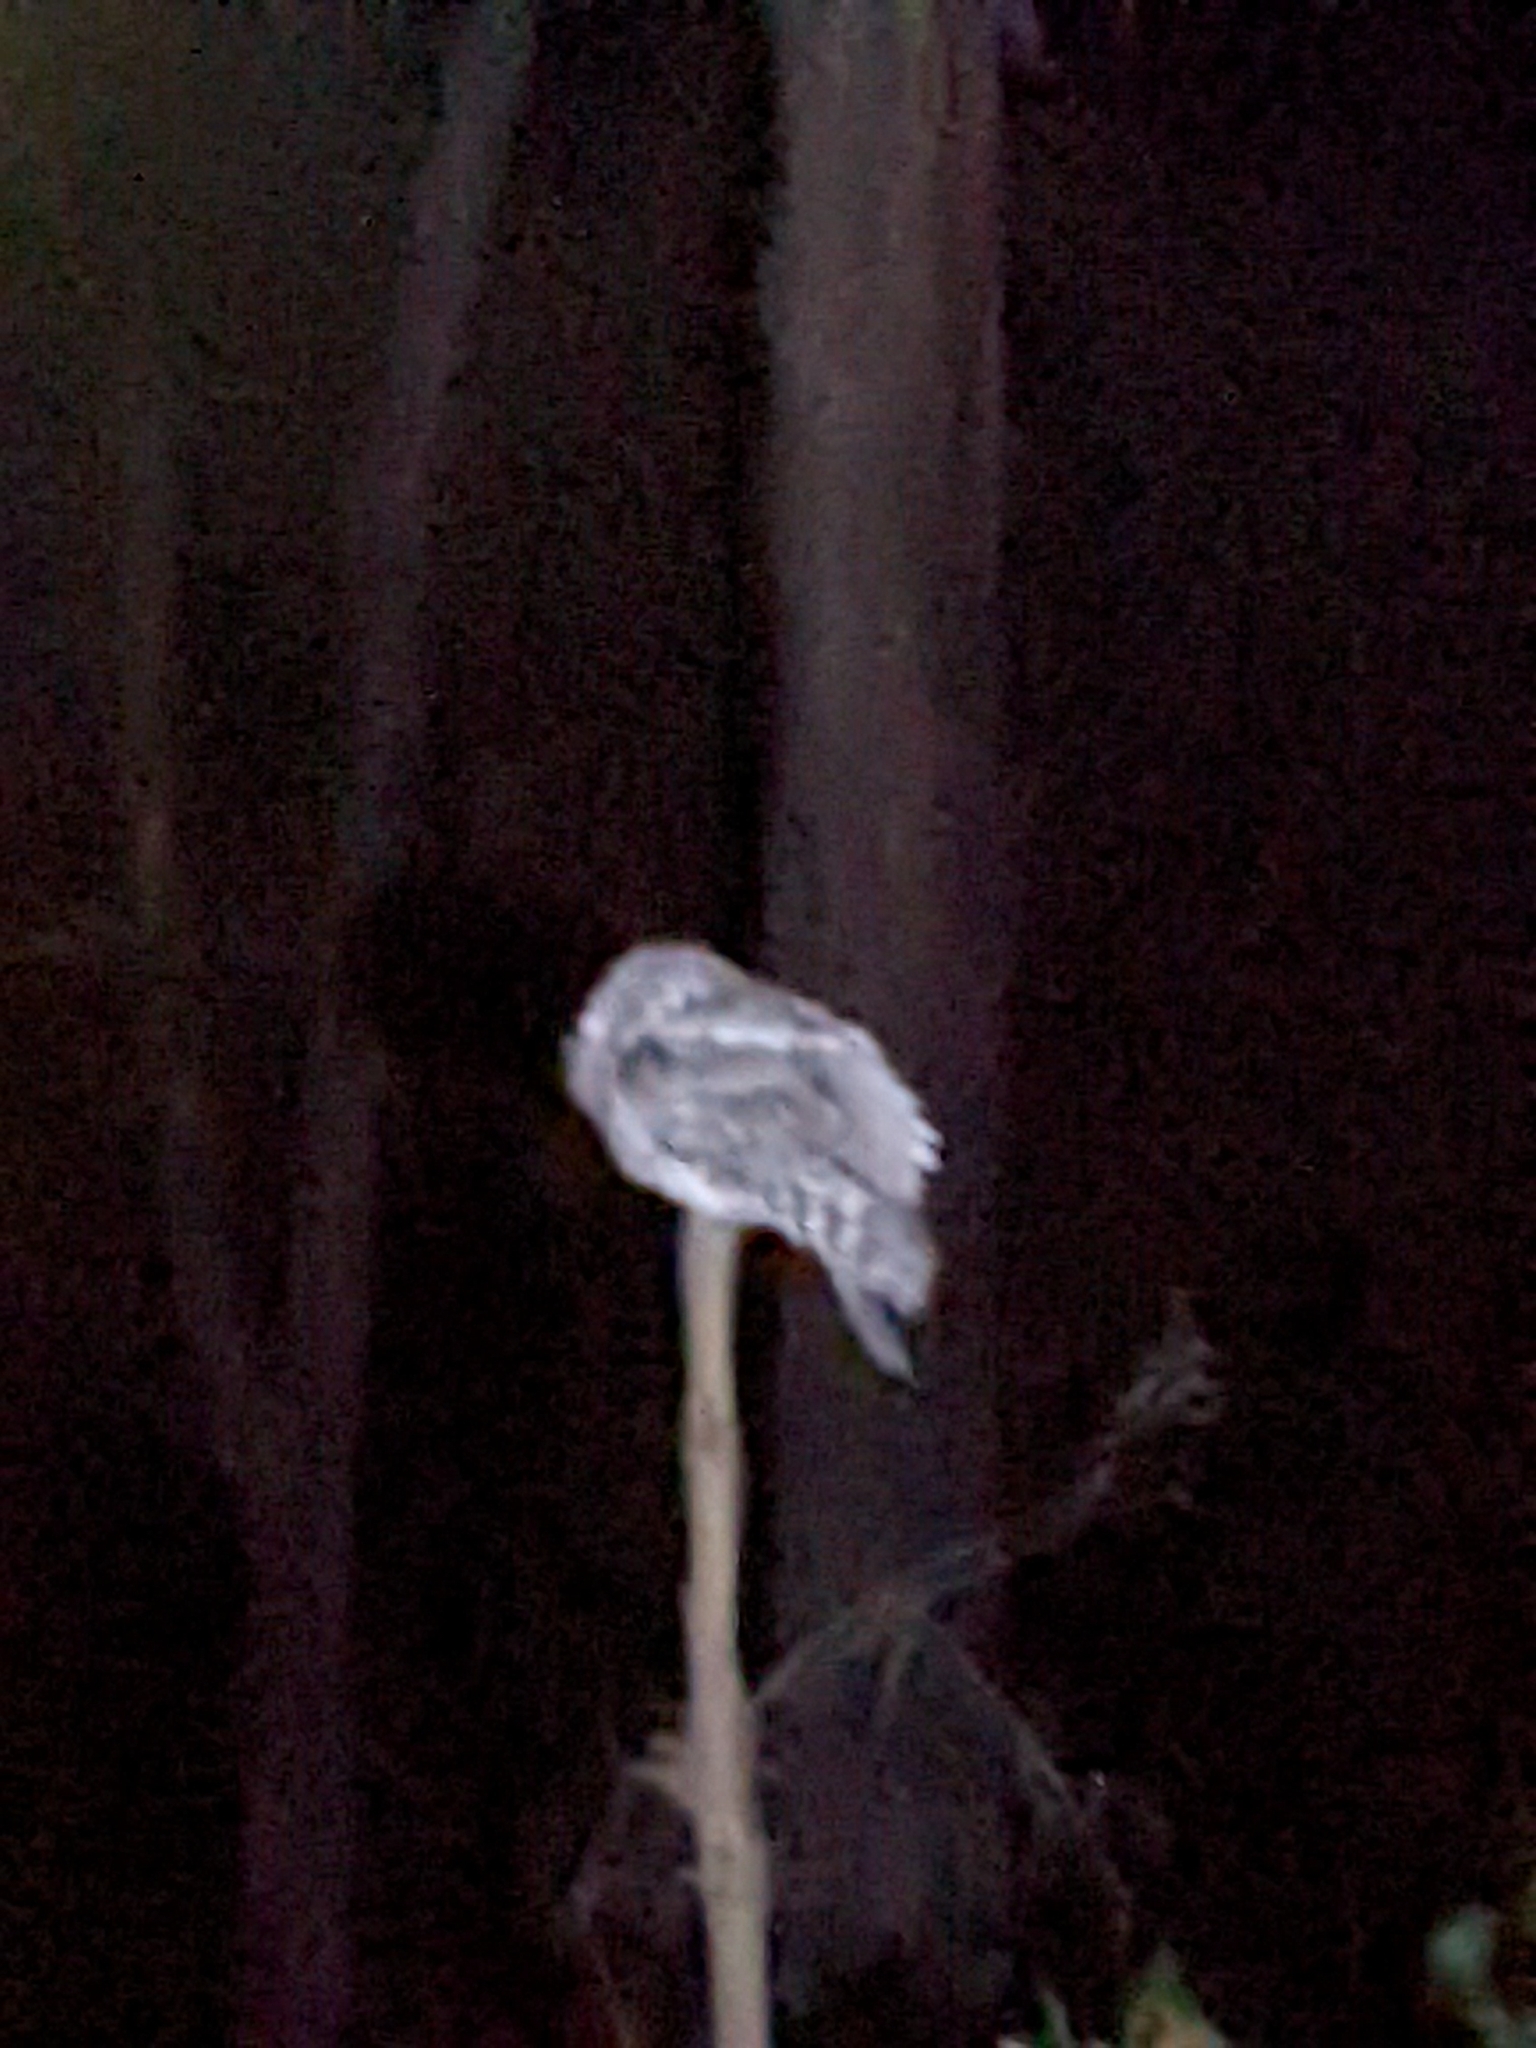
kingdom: Animalia
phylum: Chordata
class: Aves
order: Caprimulgiformes
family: Podargidae
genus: Podargus
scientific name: Podargus strigoides
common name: Tawny frogmouth
